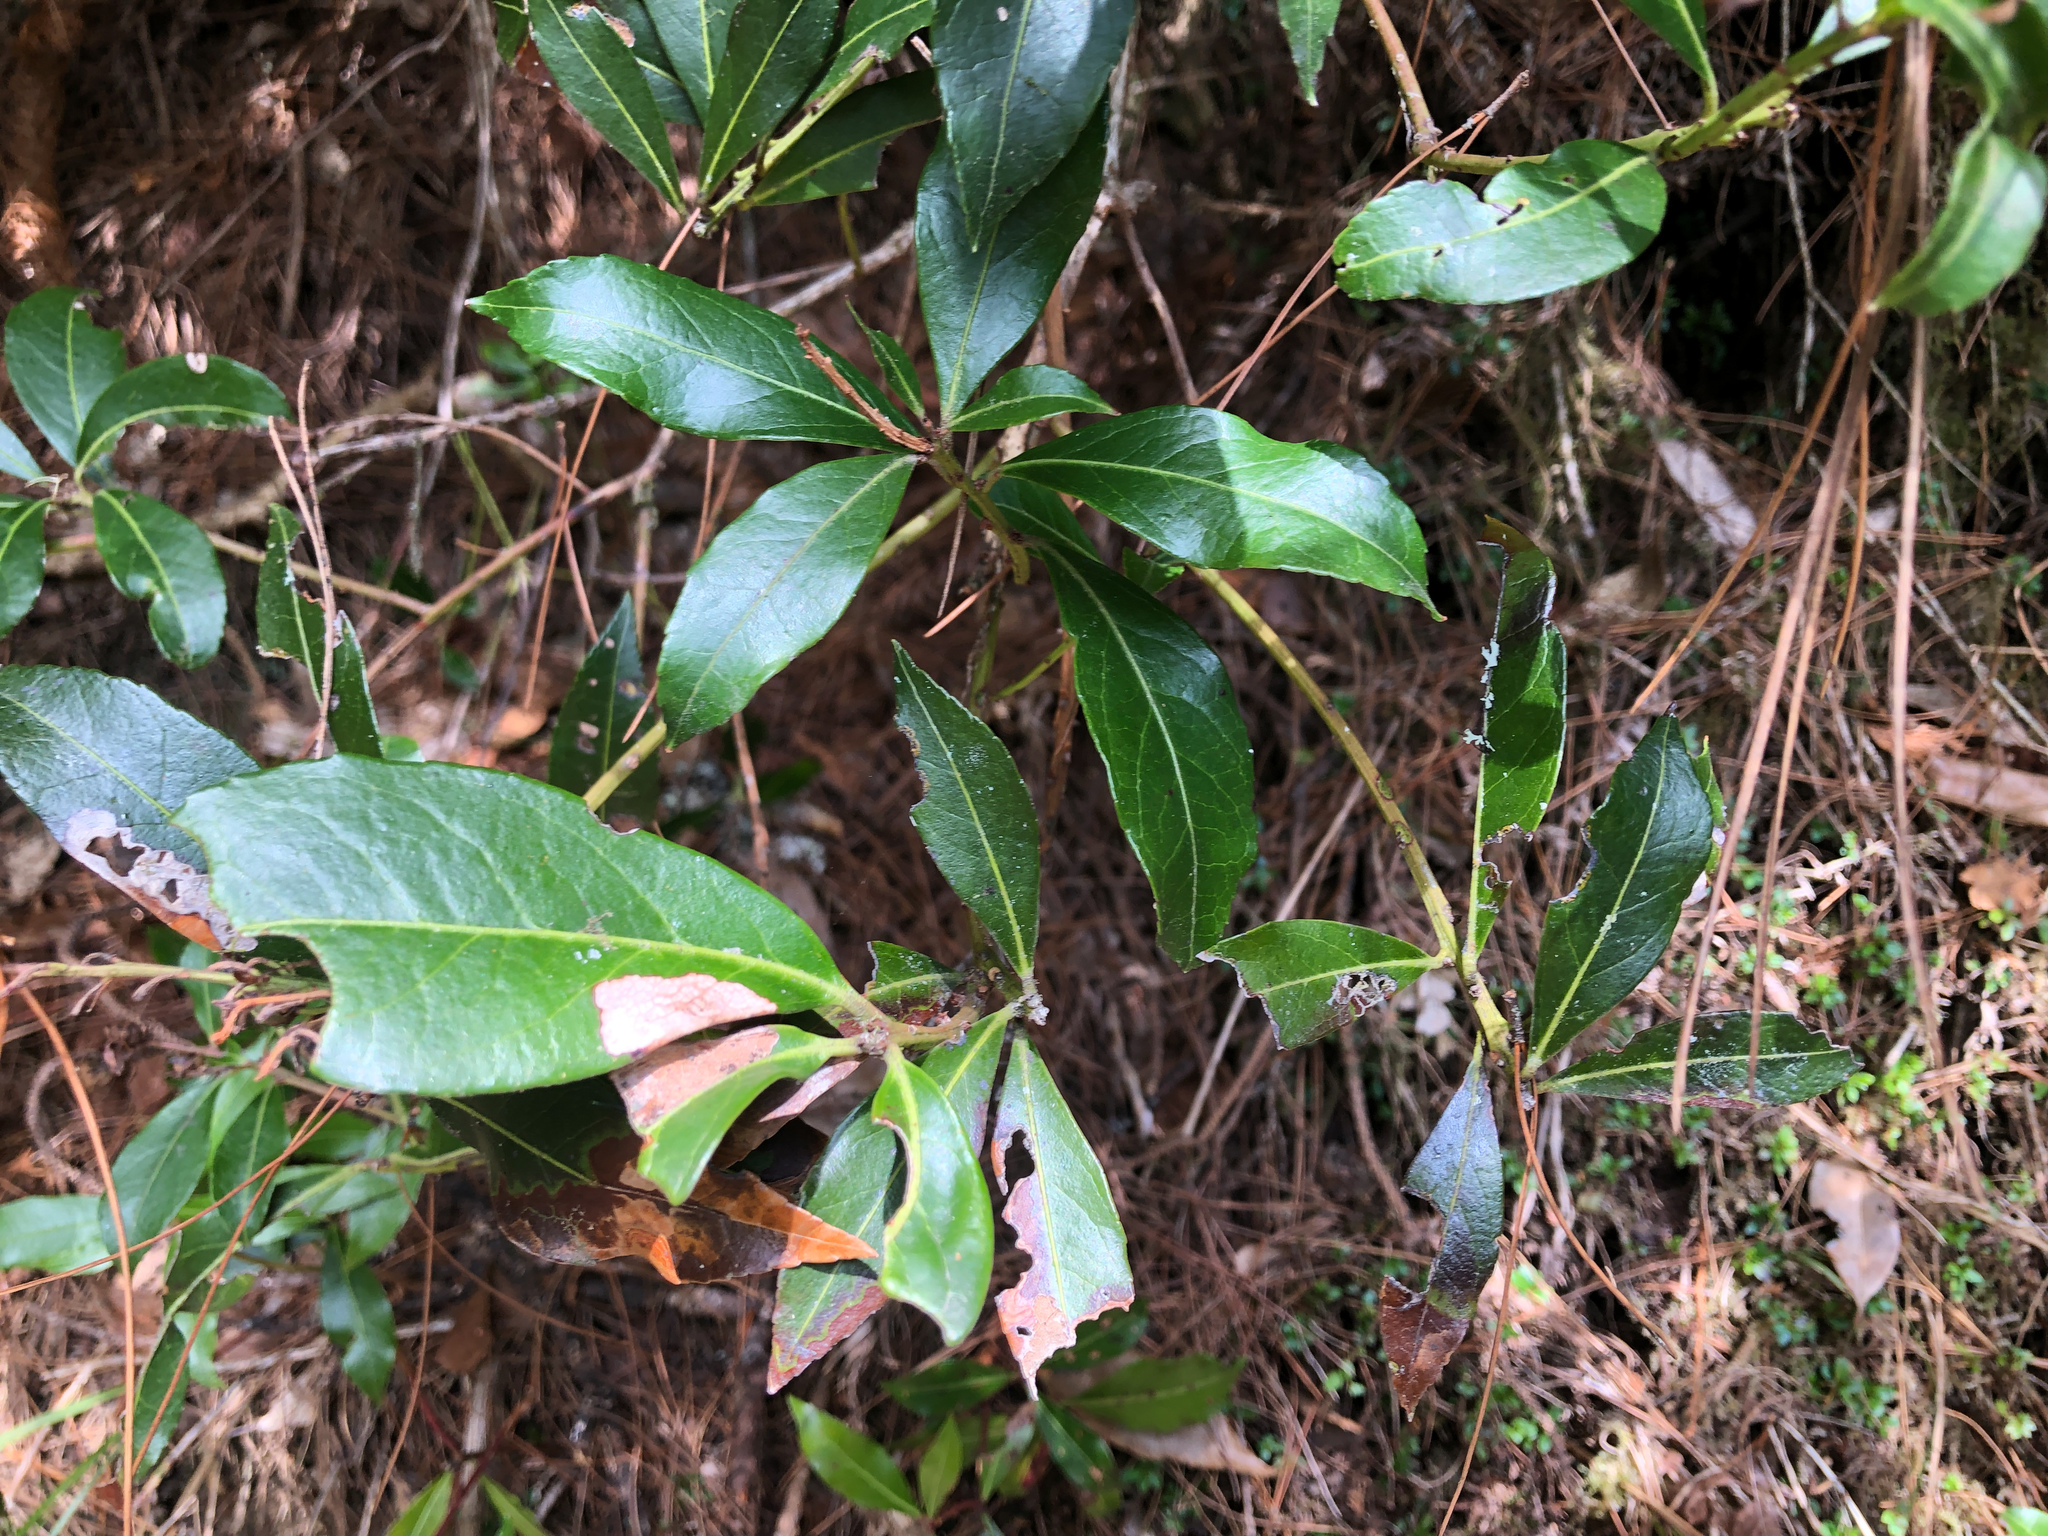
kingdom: Plantae
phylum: Tracheophyta
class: Magnoliopsida
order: Ericales
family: Ericaceae
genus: Pieris
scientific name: Pieris japonica
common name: Japanese pieris
